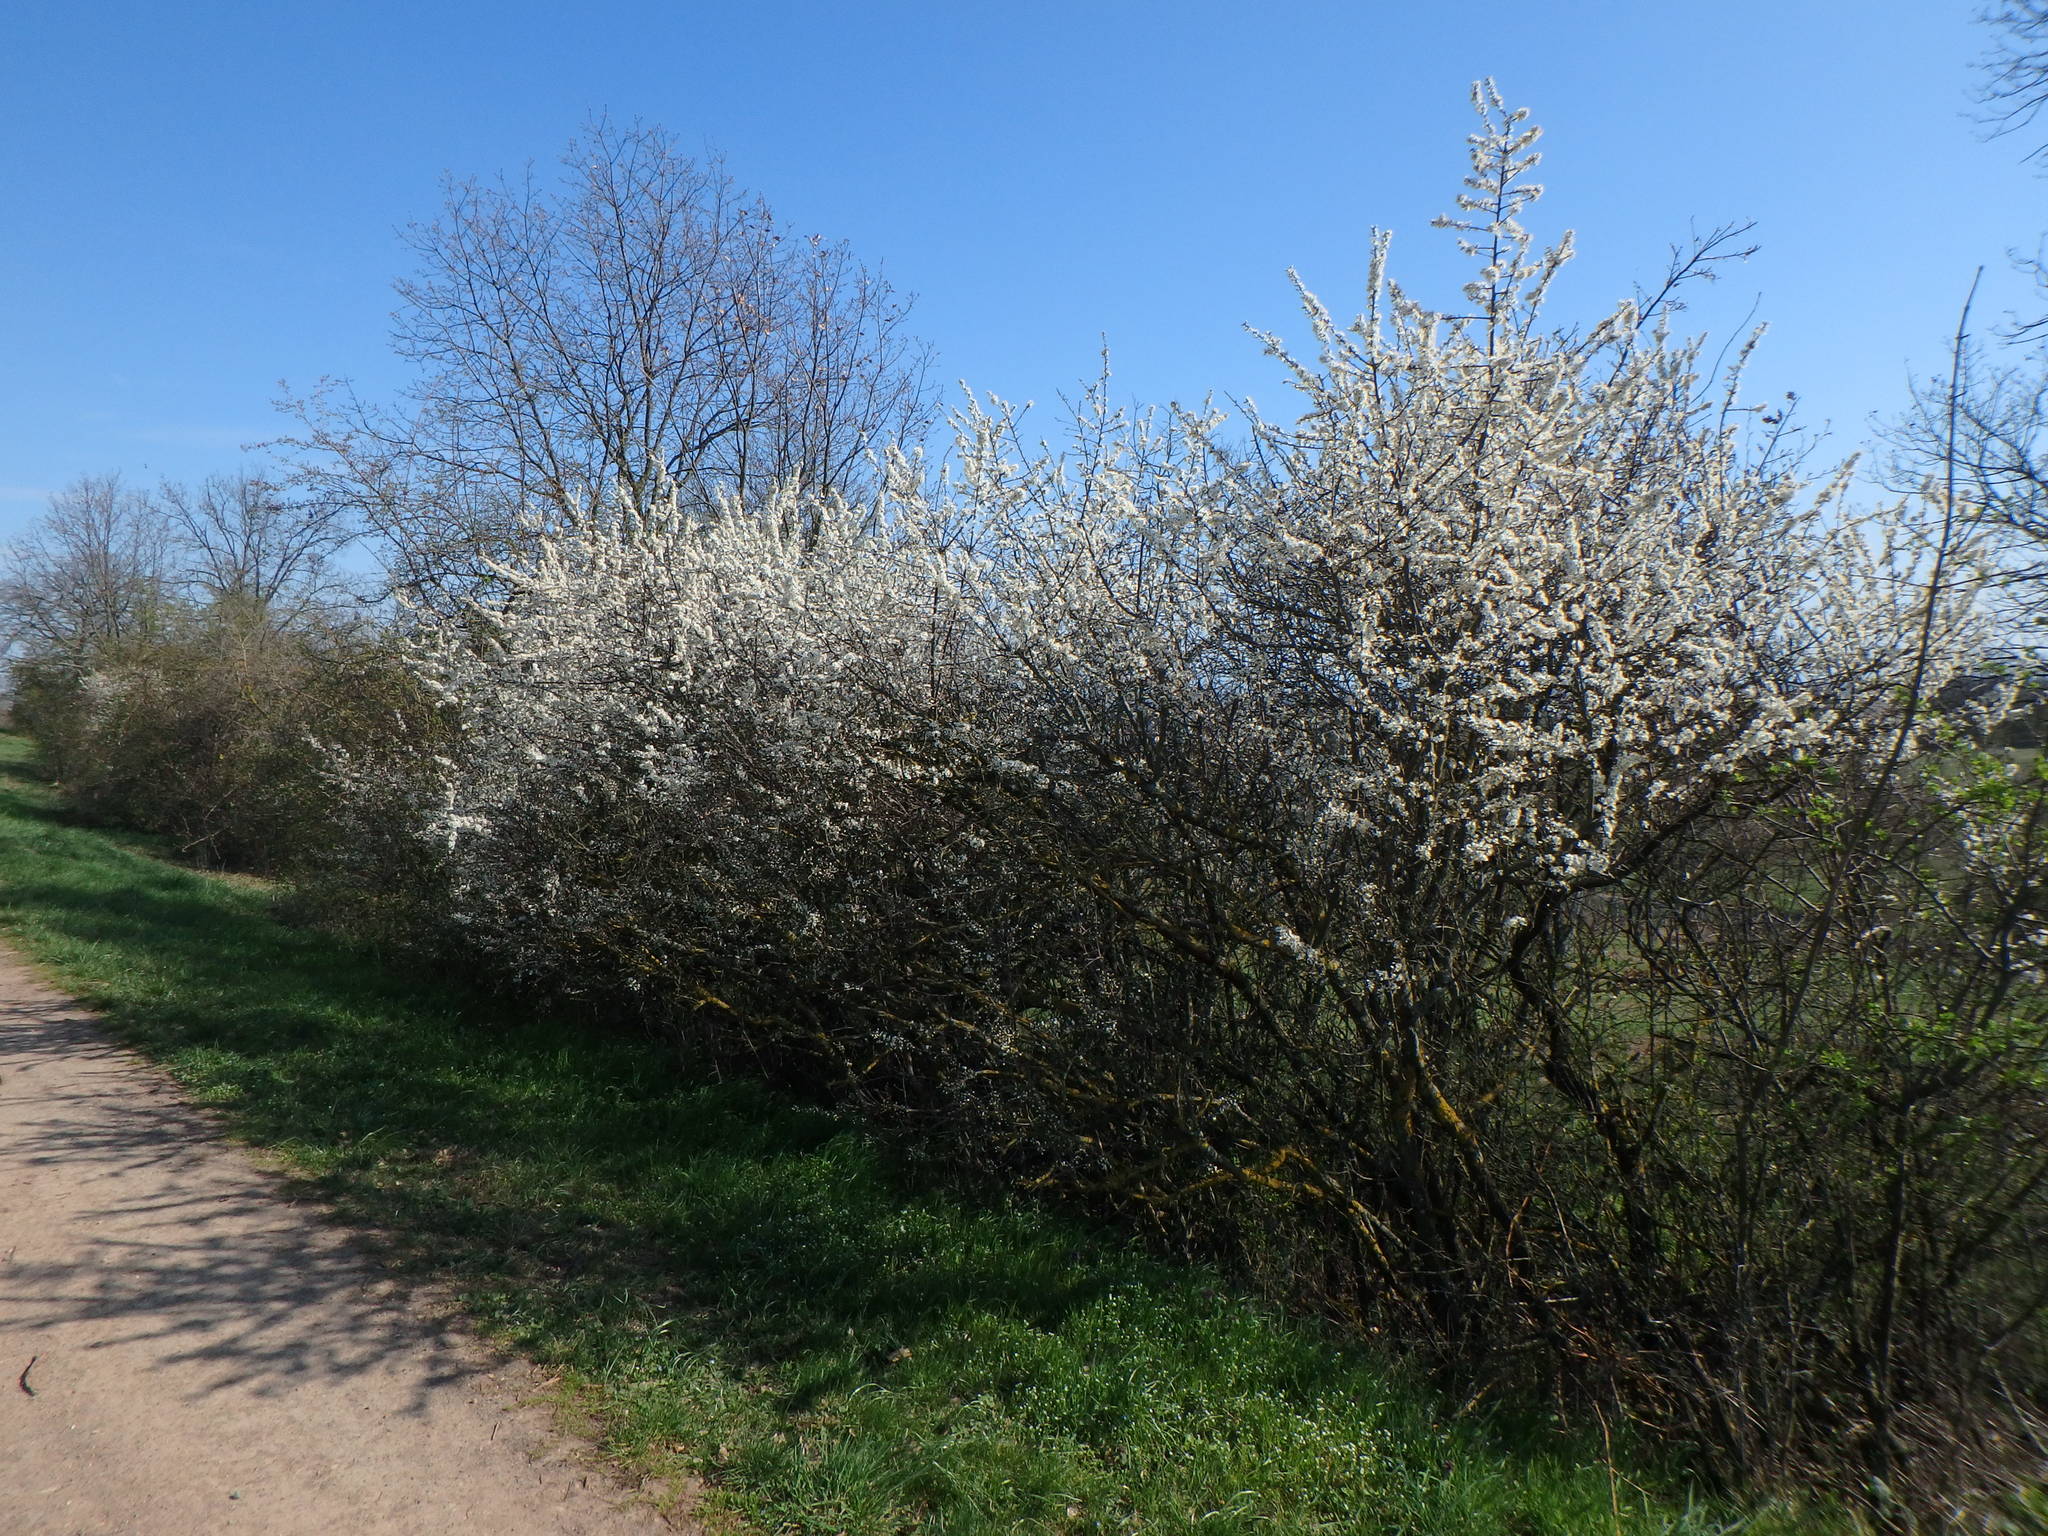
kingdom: Plantae
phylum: Tracheophyta
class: Magnoliopsida
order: Rosales
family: Rosaceae
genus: Prunus
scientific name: Prunus spinosa
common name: Blackthorn
